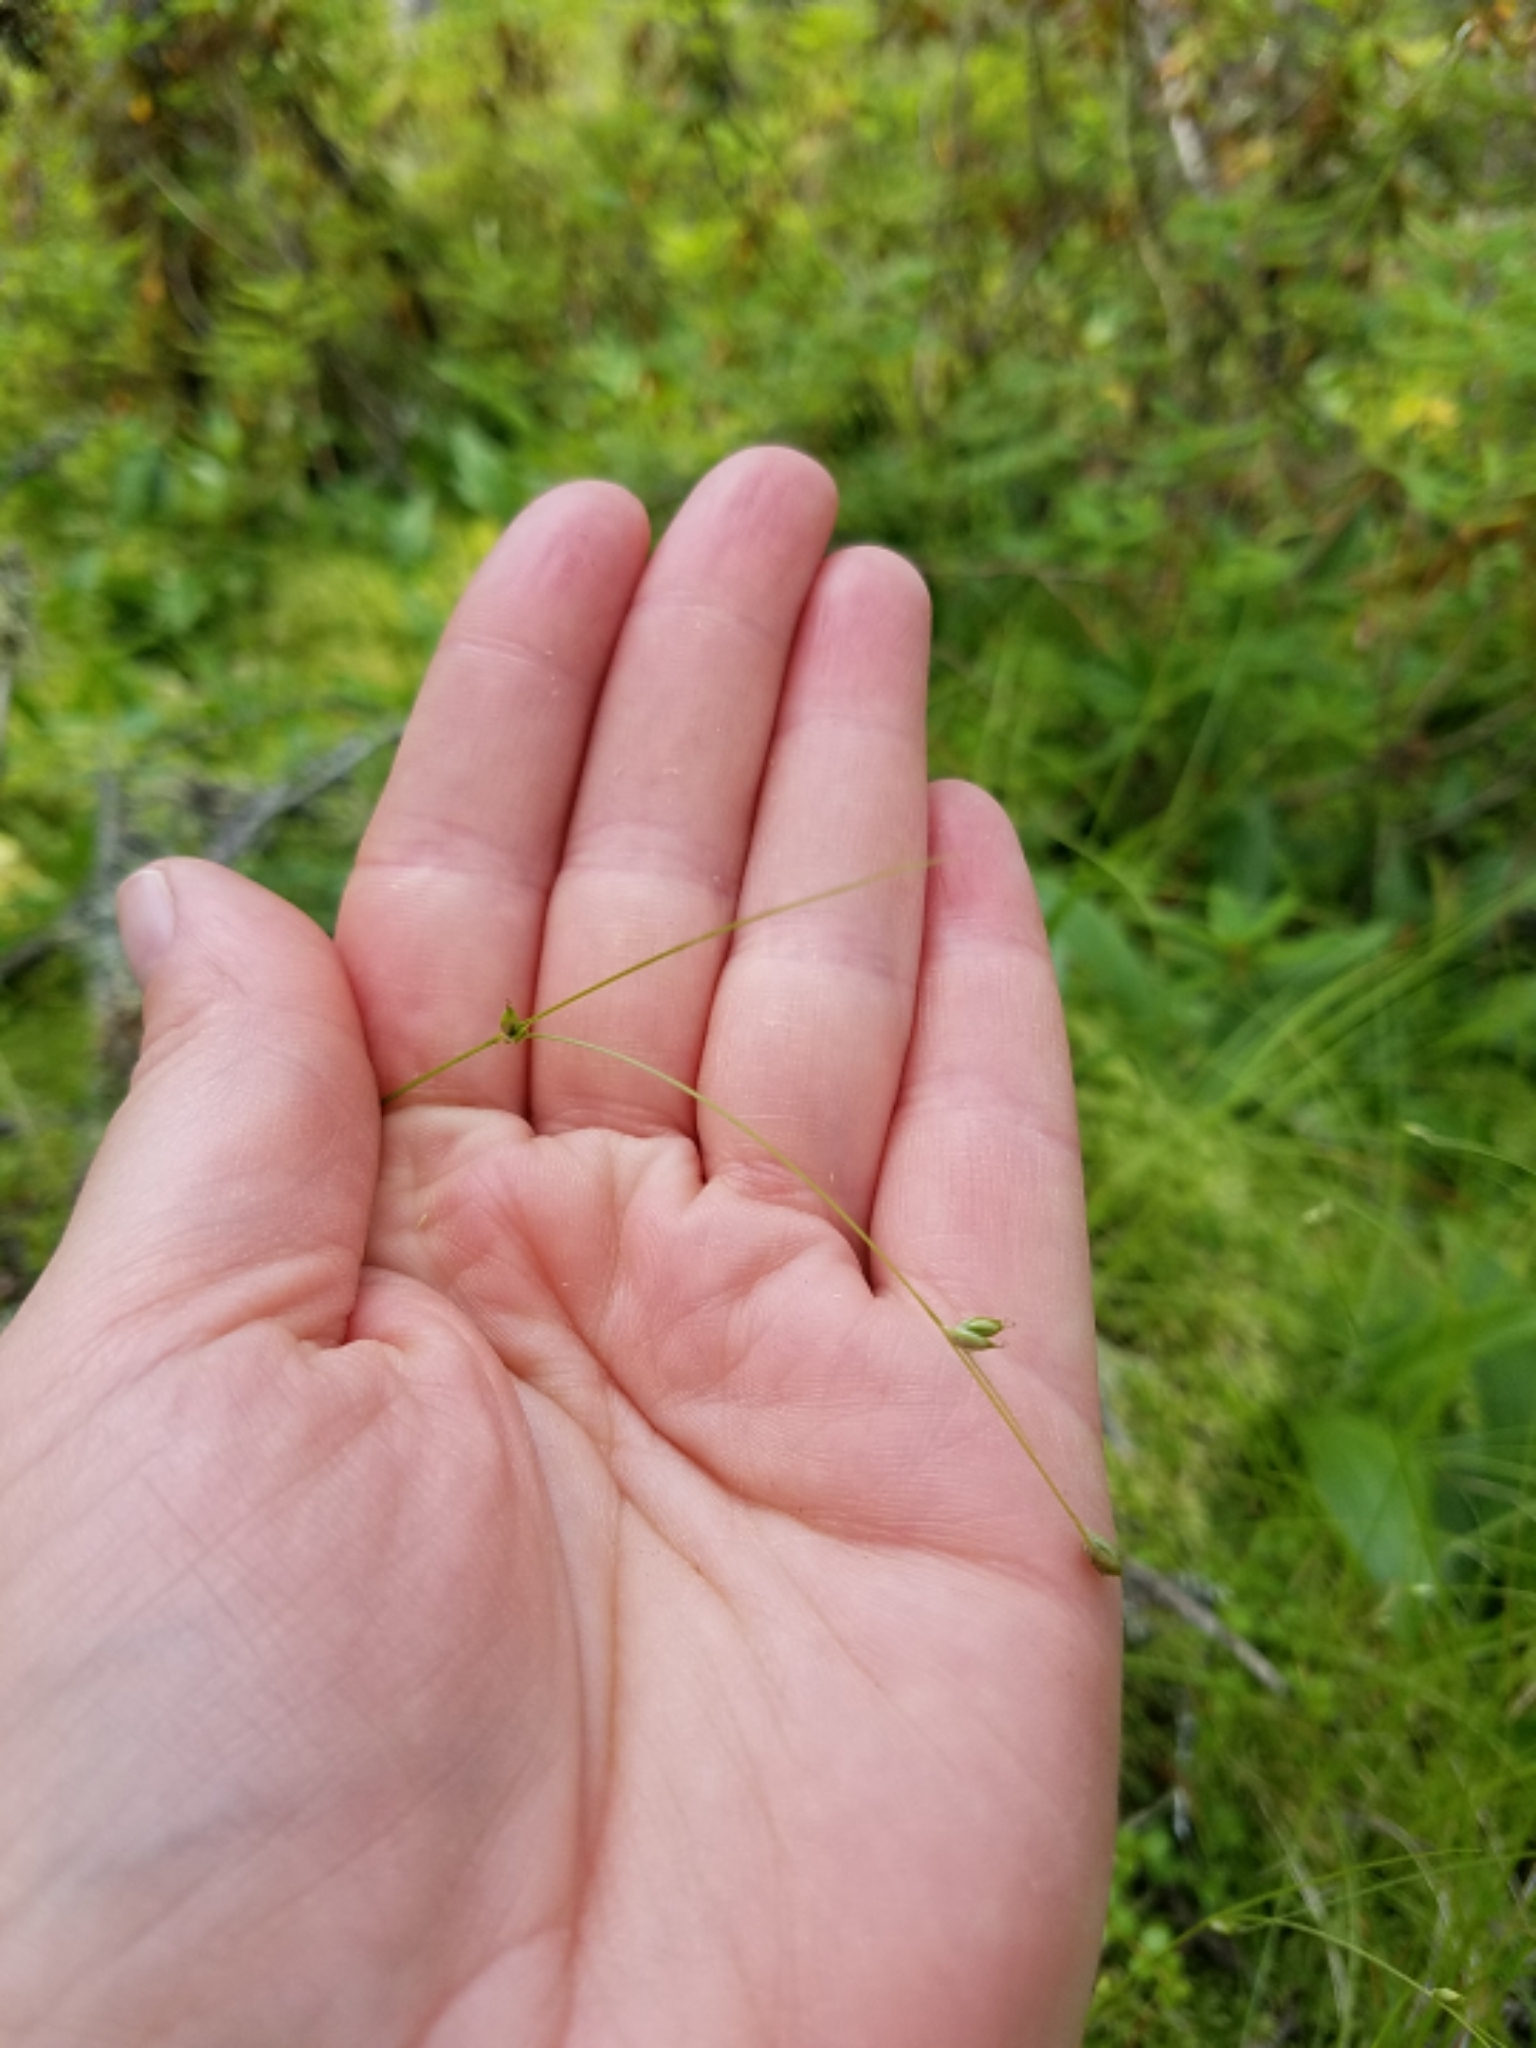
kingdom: Plantae
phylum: Tracheophyta
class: Liliopsida
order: Poales
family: Cyperaceae
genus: Carex
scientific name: Carex trisperma
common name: Three-seeded sedge
